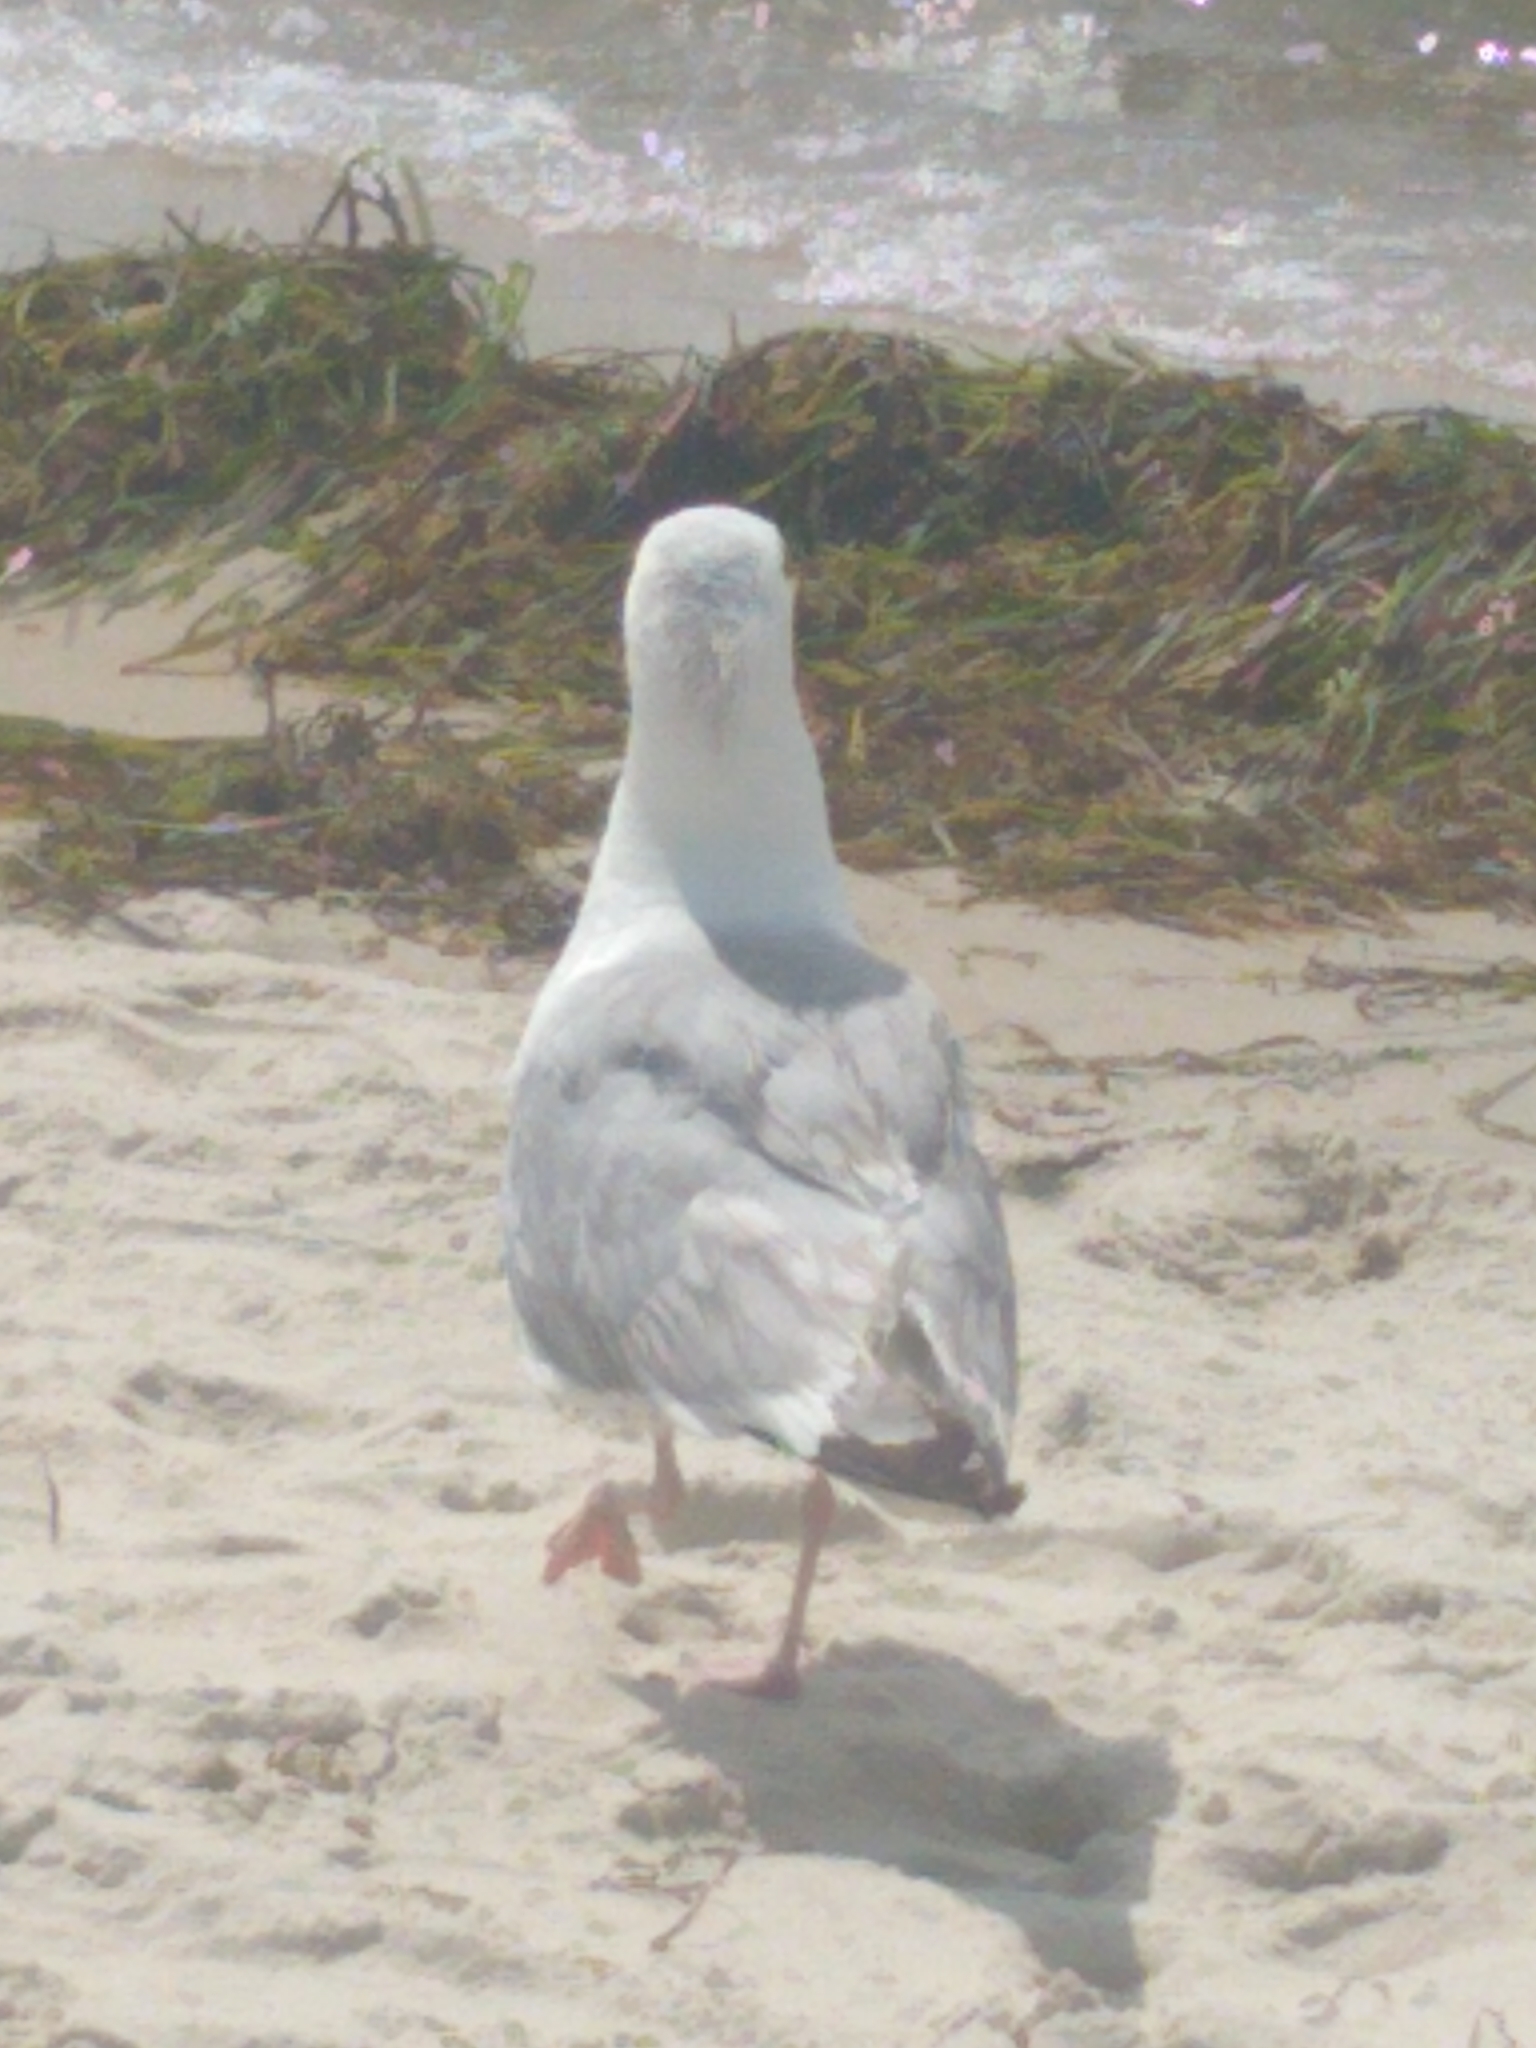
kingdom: Animalia
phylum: Chordata
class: Aves
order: Charadriiformes
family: Laridae
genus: Larus
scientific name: Larus argentatus
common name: Herring gull
